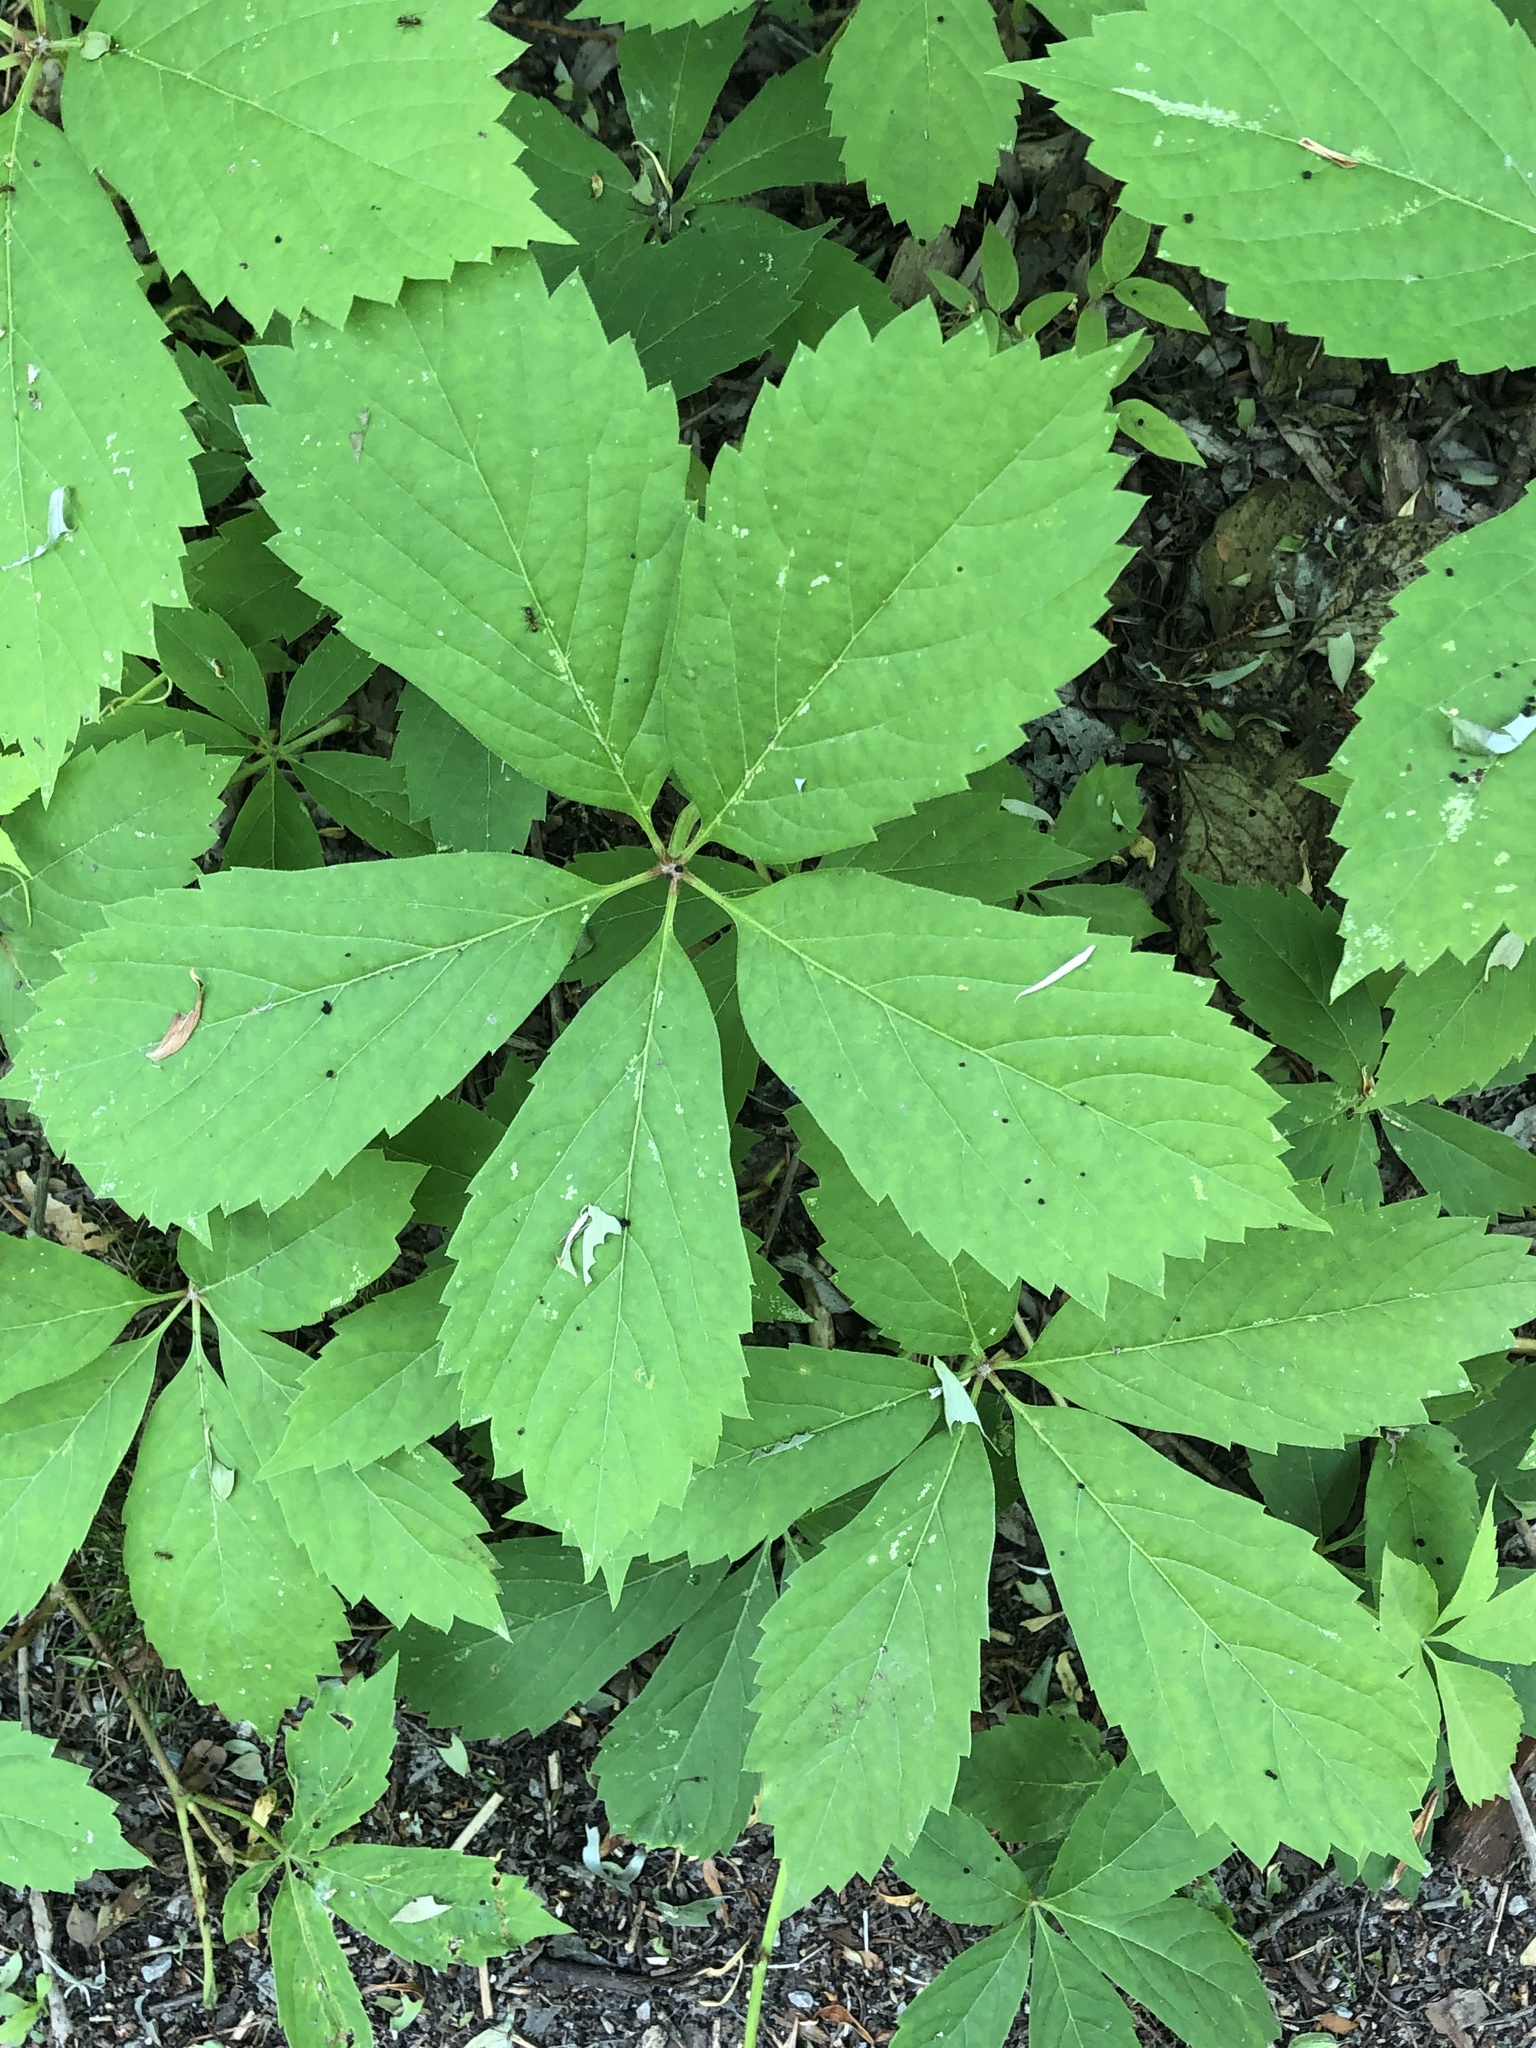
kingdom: Plantae
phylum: Tracheophyta
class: Magnoliopsida
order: Vitales
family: Vitaceae
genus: Parthenocissus
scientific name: Parthenocissus quinquefolia
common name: Virginia-creeper
